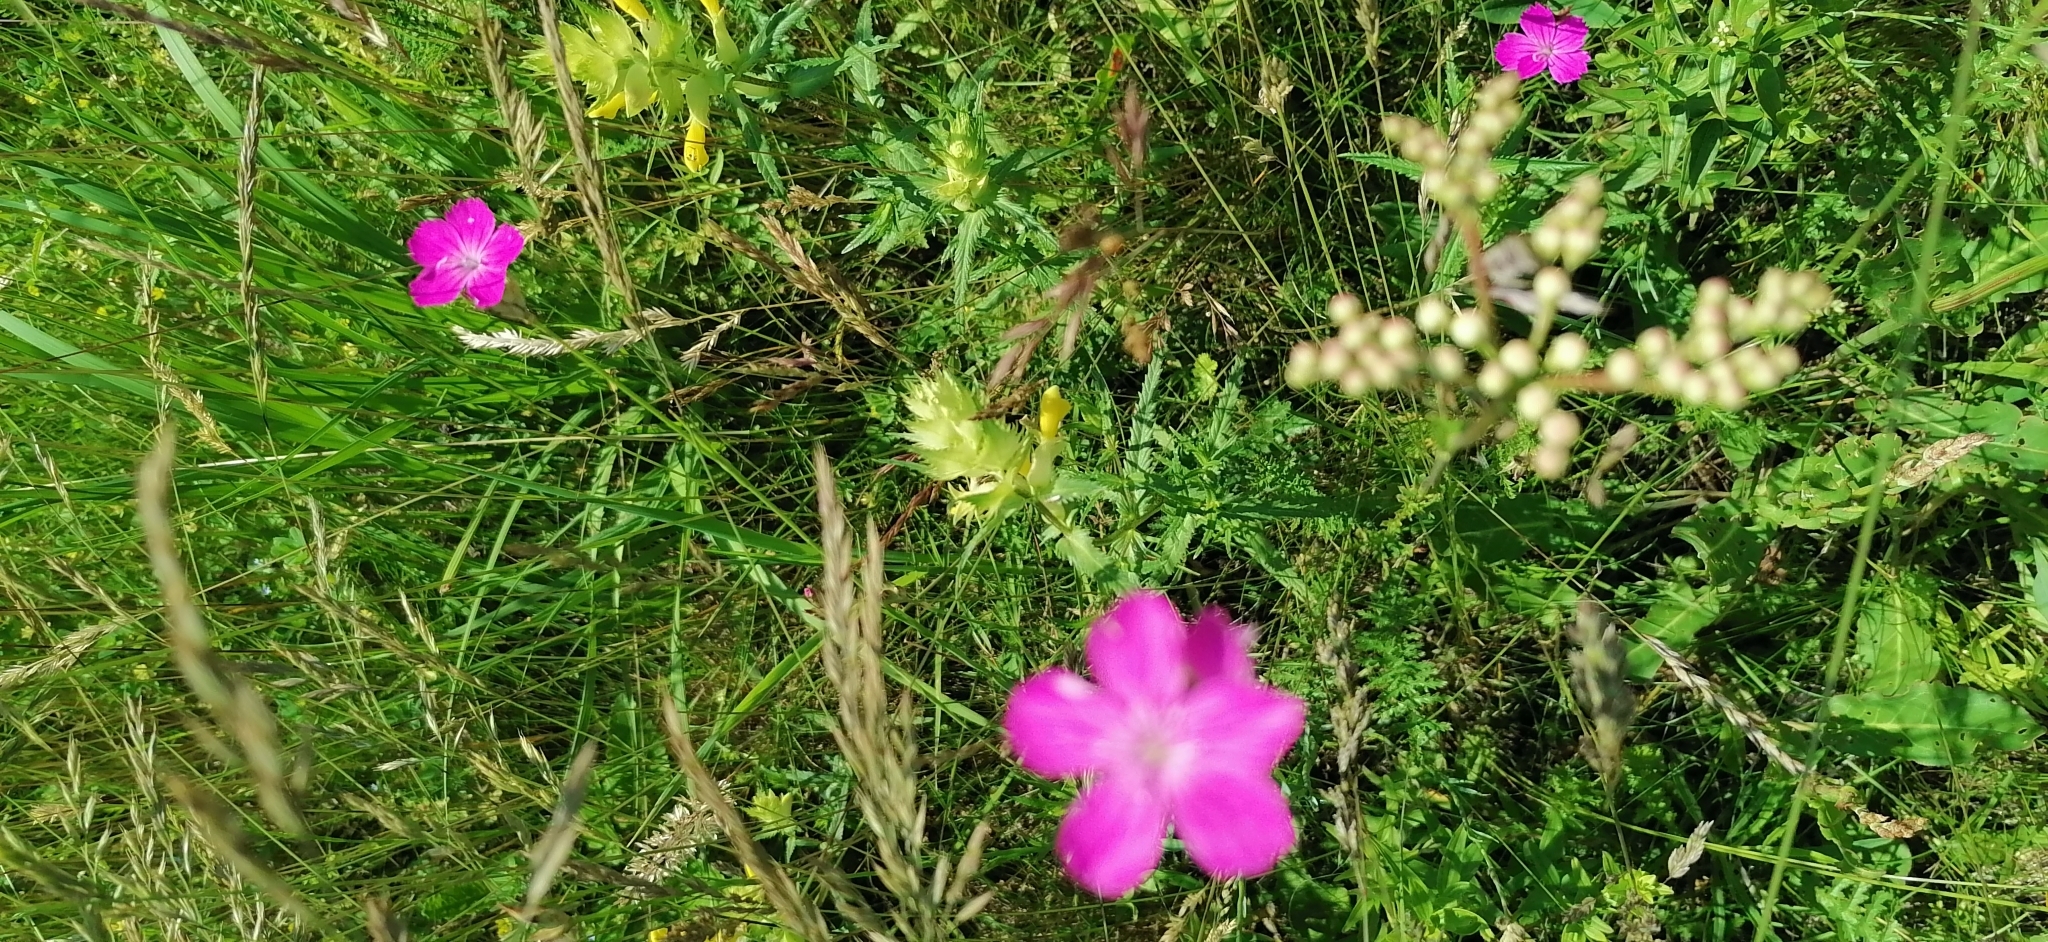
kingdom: Plantae
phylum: Tracheophyta
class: Magnoliopsida
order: Caryophyllales
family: Caryophyllaceae
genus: Dianthus
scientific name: Dianthus borbasii
